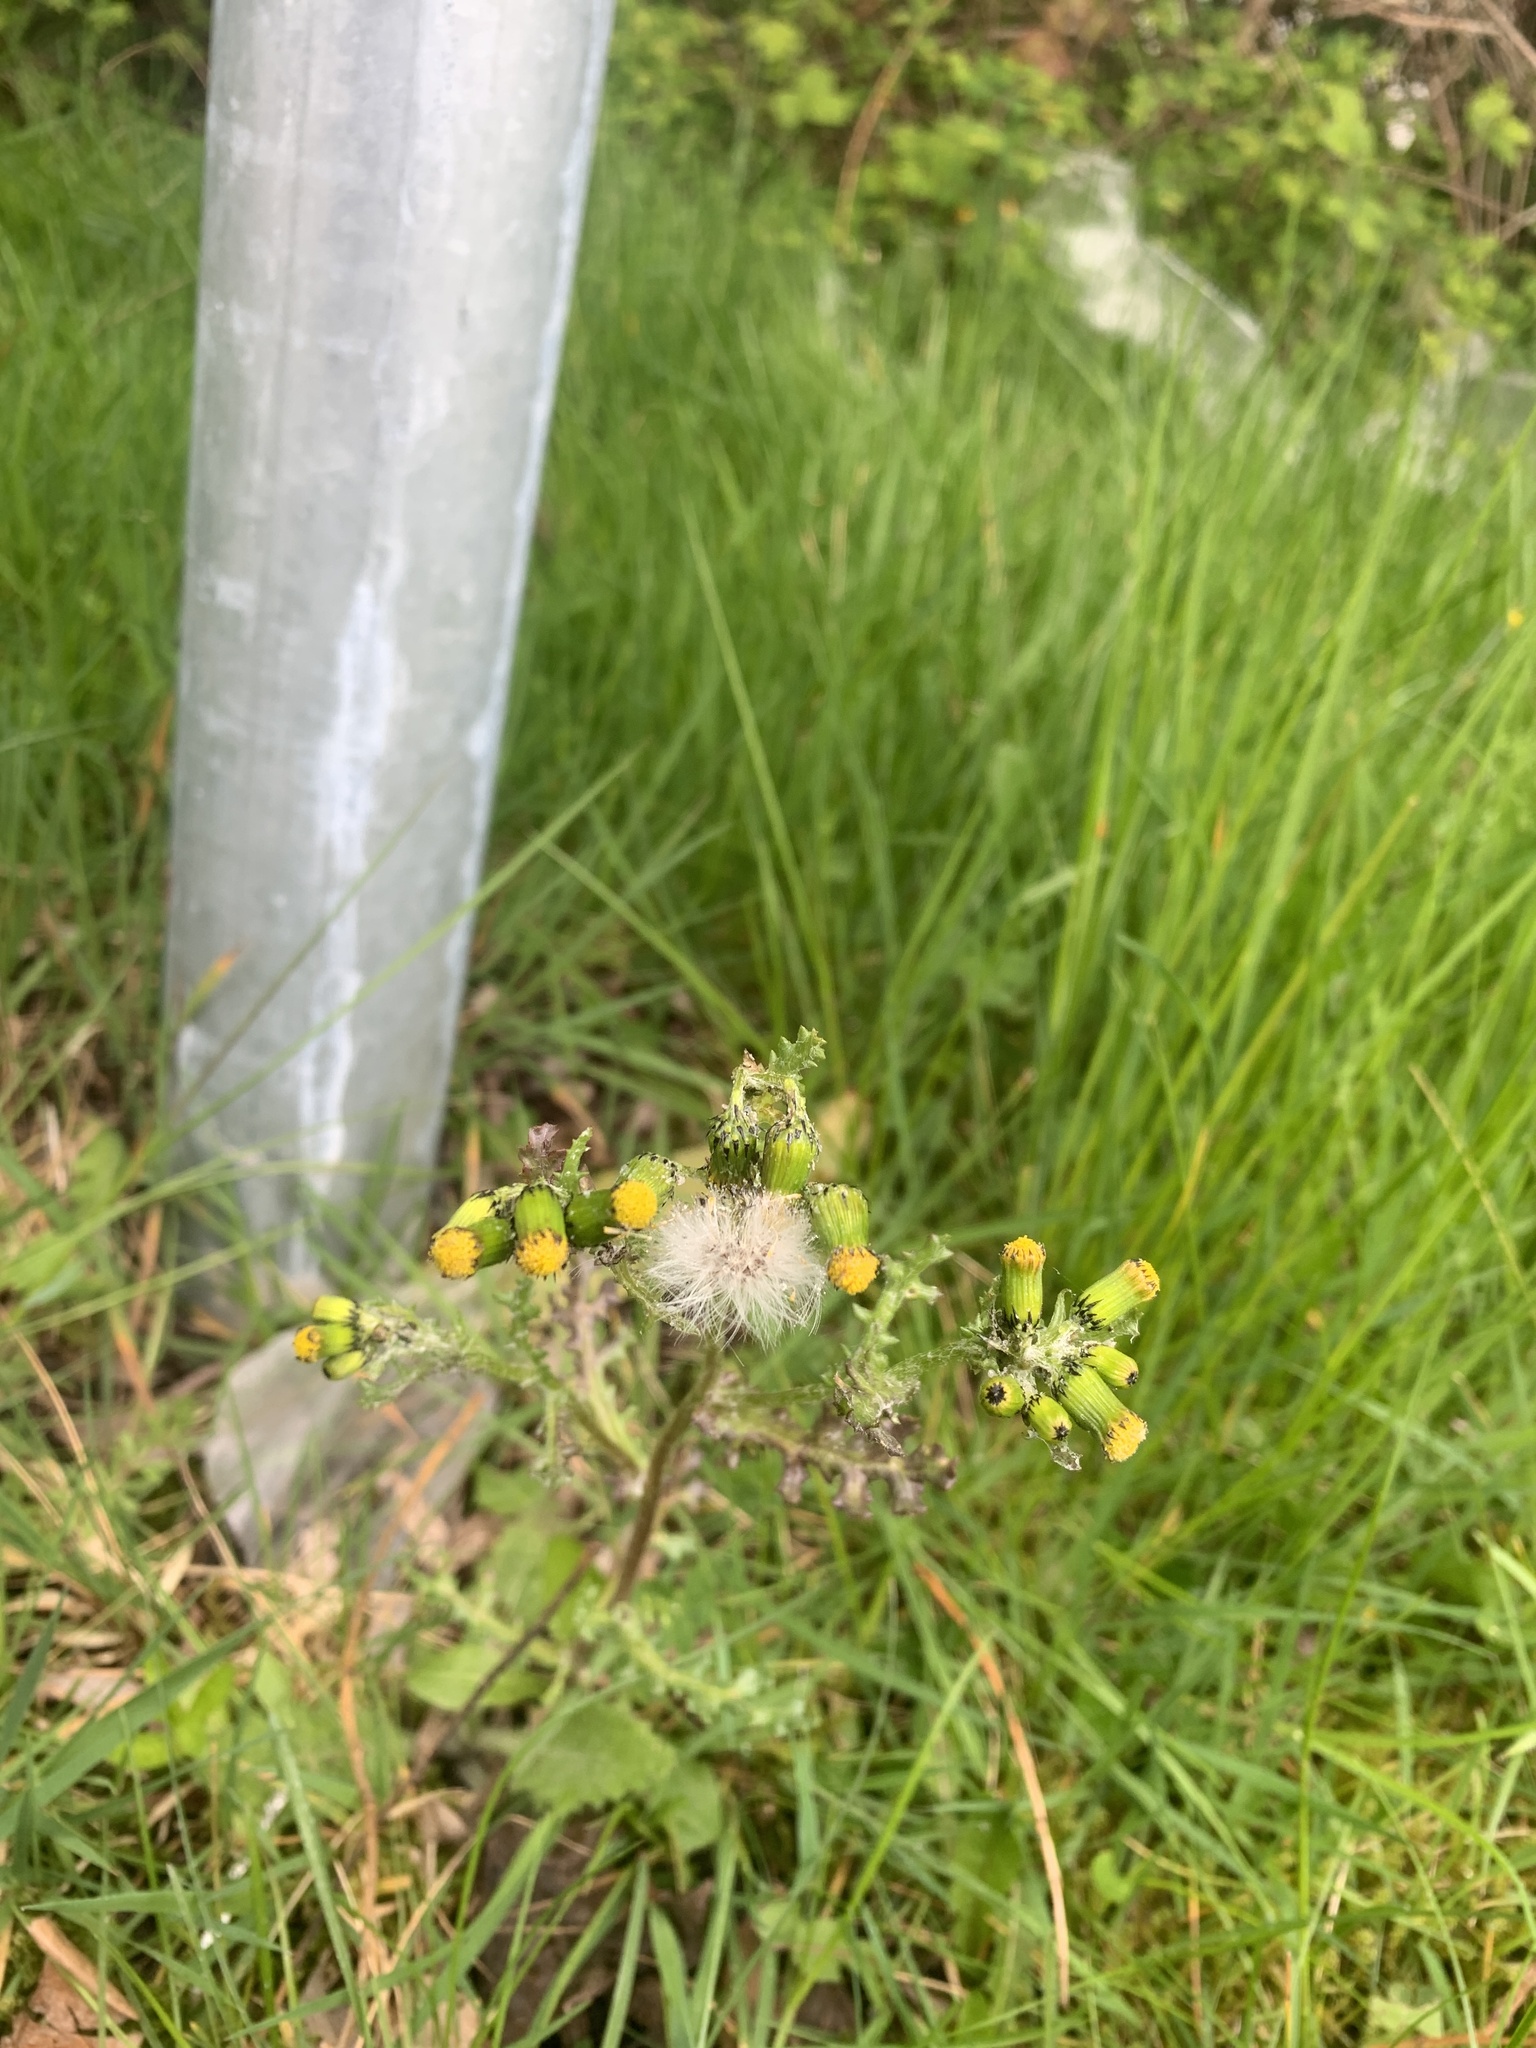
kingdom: Plantae
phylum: Tracheophyta
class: Magnoliopsida
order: Asterales
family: Asteraceae
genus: Senecio
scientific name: Senecio vulgaris
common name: Old-man-in-the-spring
